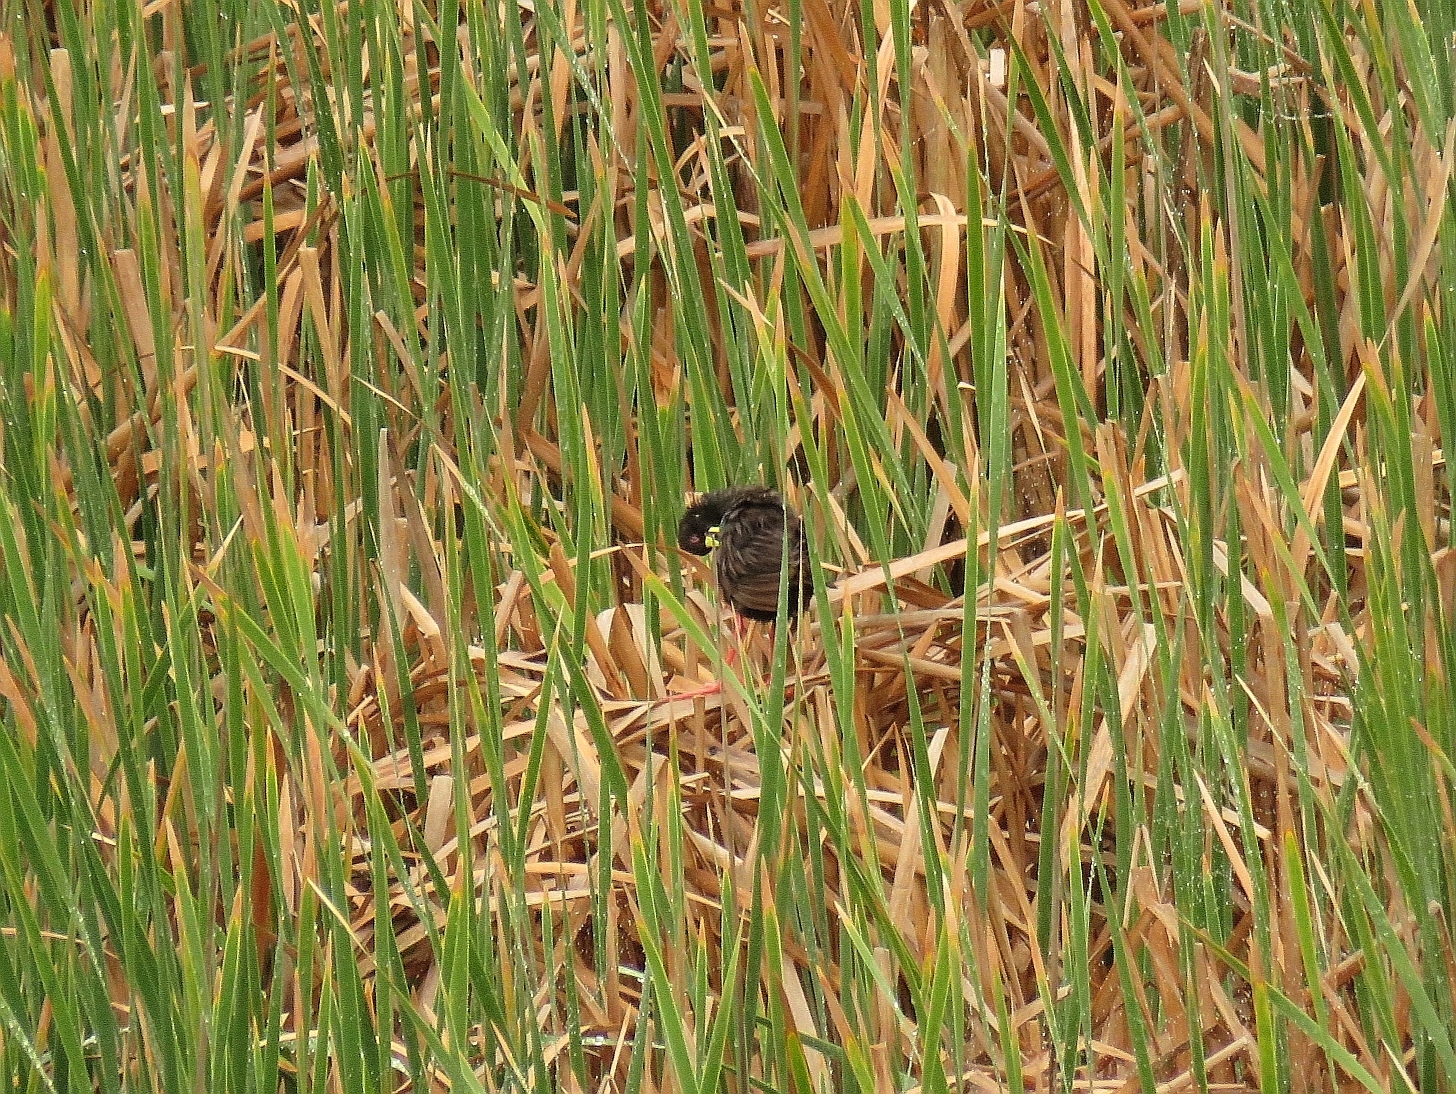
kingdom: Animalia
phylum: Chordata
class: Aves
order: Gruiformes
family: Rallidae
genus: Amaurornis
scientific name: Amaurornis flavirostra
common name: Black crake
